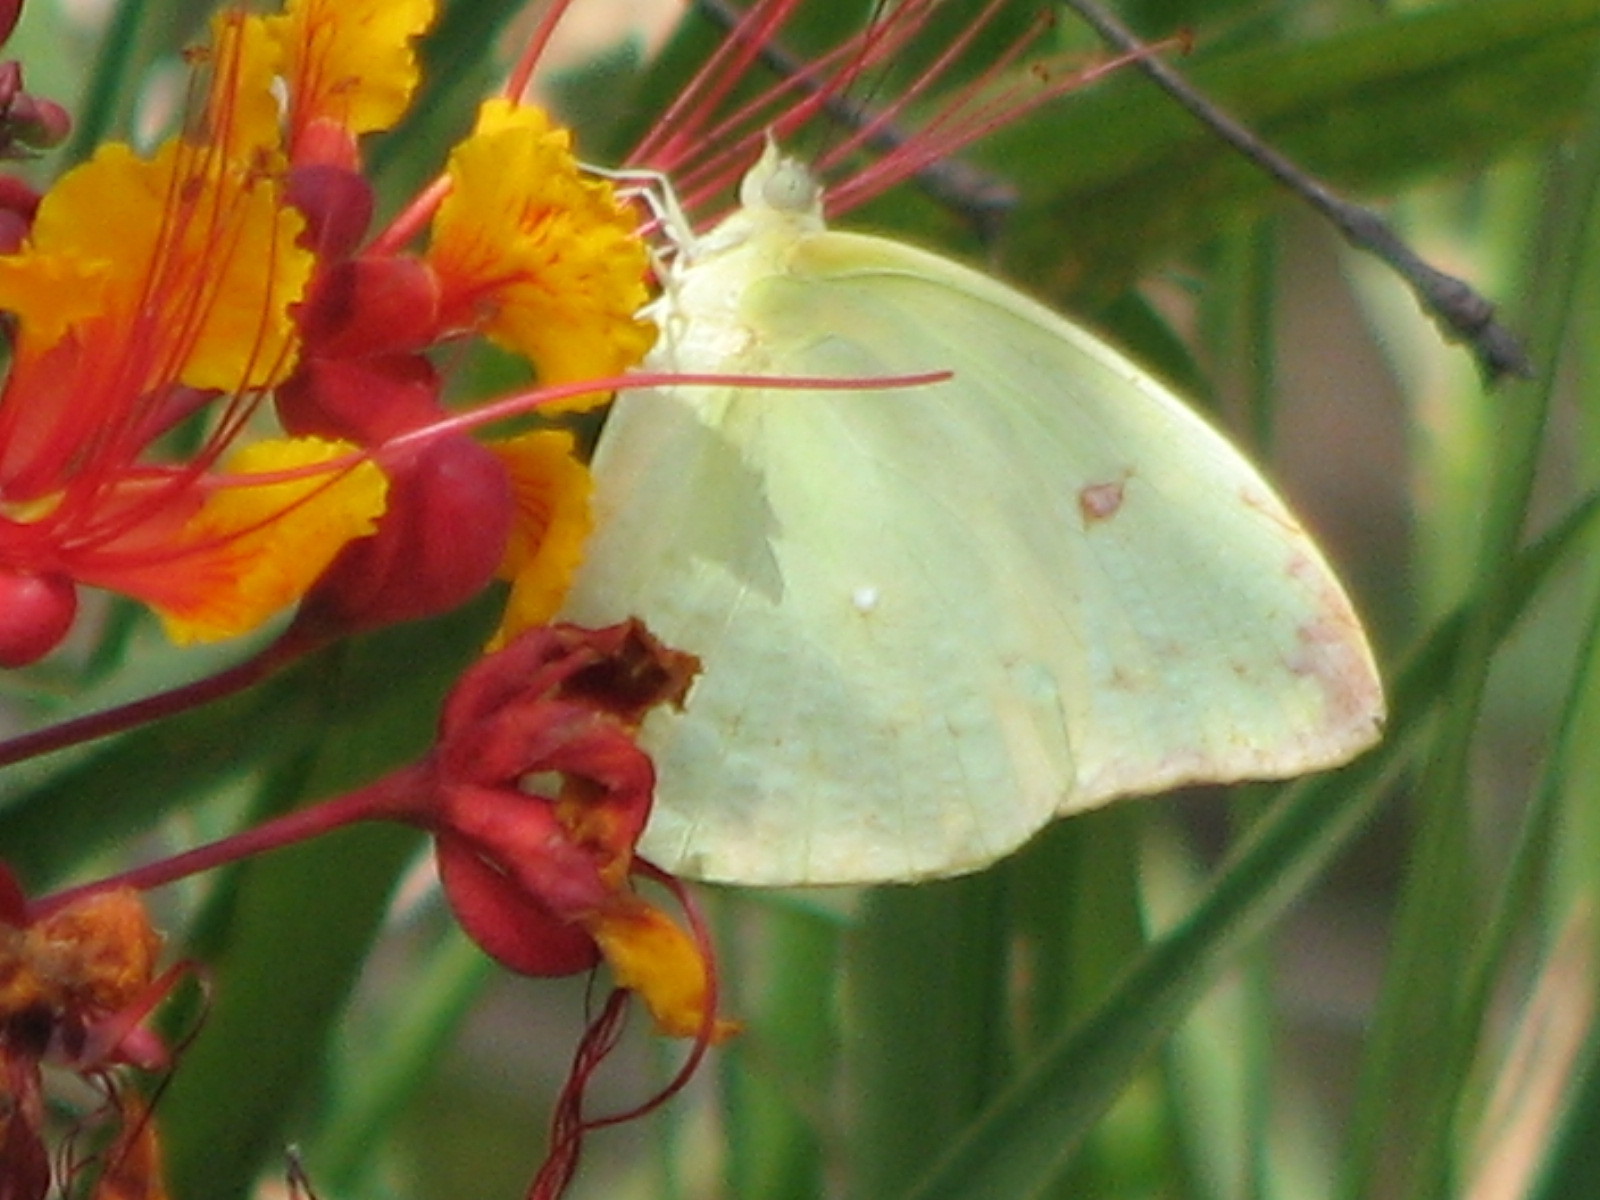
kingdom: Animalia
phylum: Arthropoda
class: Insecta
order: Lepidoptera
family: Pieridae
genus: Aphrissa
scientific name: Aphrissa statira
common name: Statira sulphur
